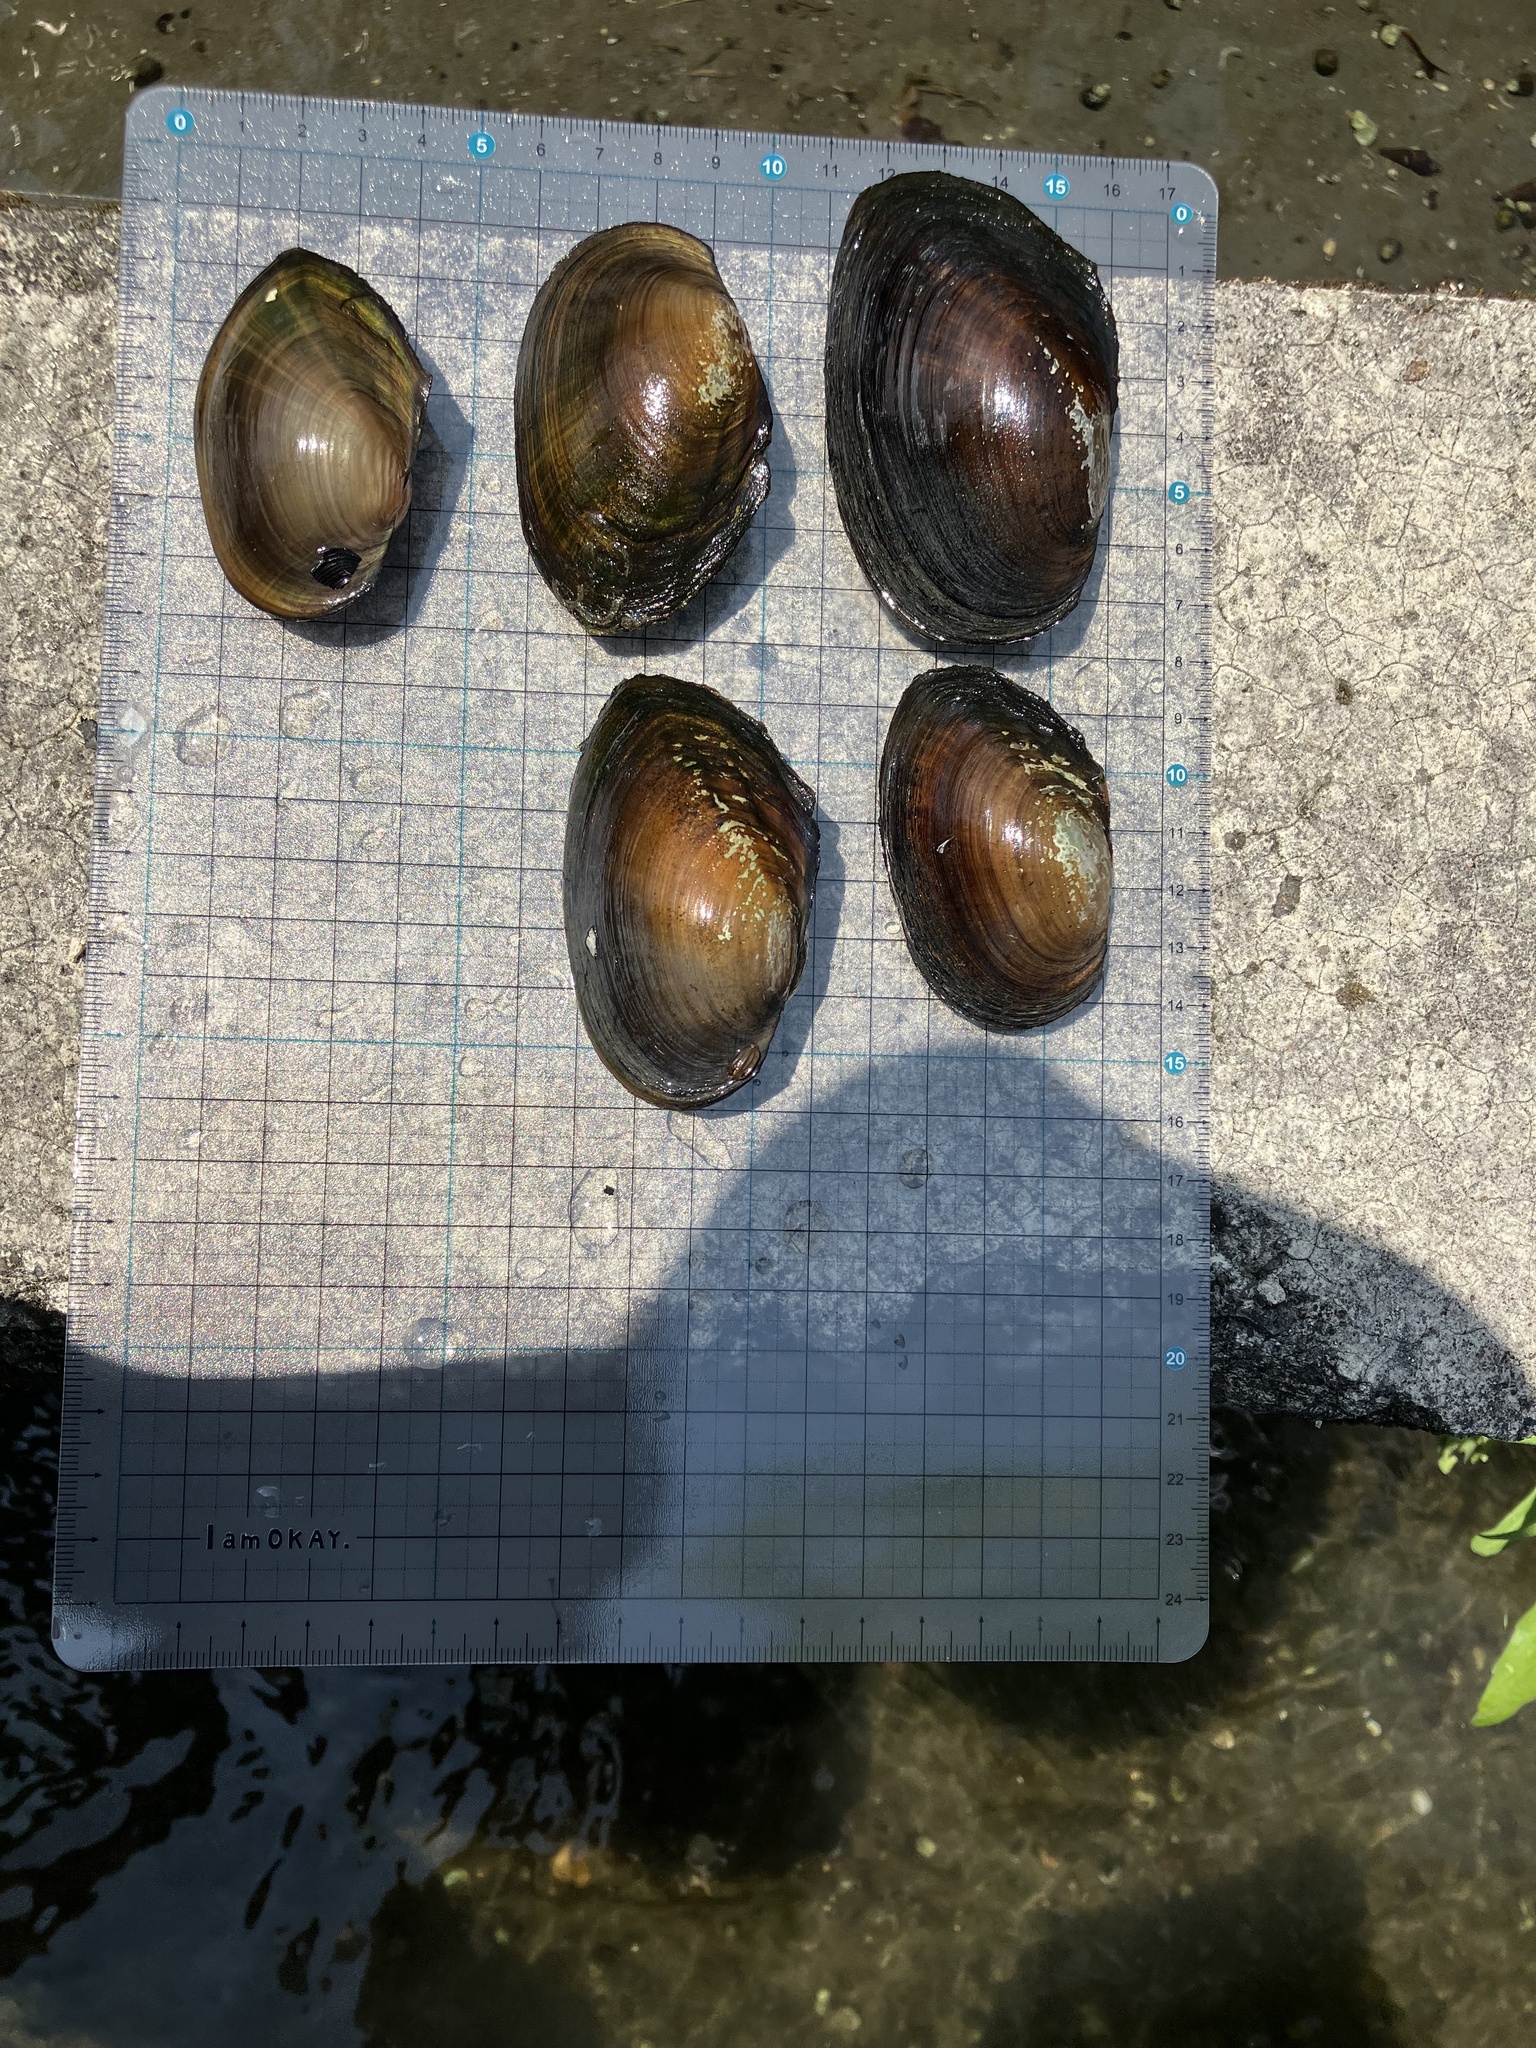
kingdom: Animalia
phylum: Mollusca
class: Bivalvia
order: Unionida
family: Unionidae
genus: Sinanodonta
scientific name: Sinanodonta woodiana
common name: Chinese pond mussel
